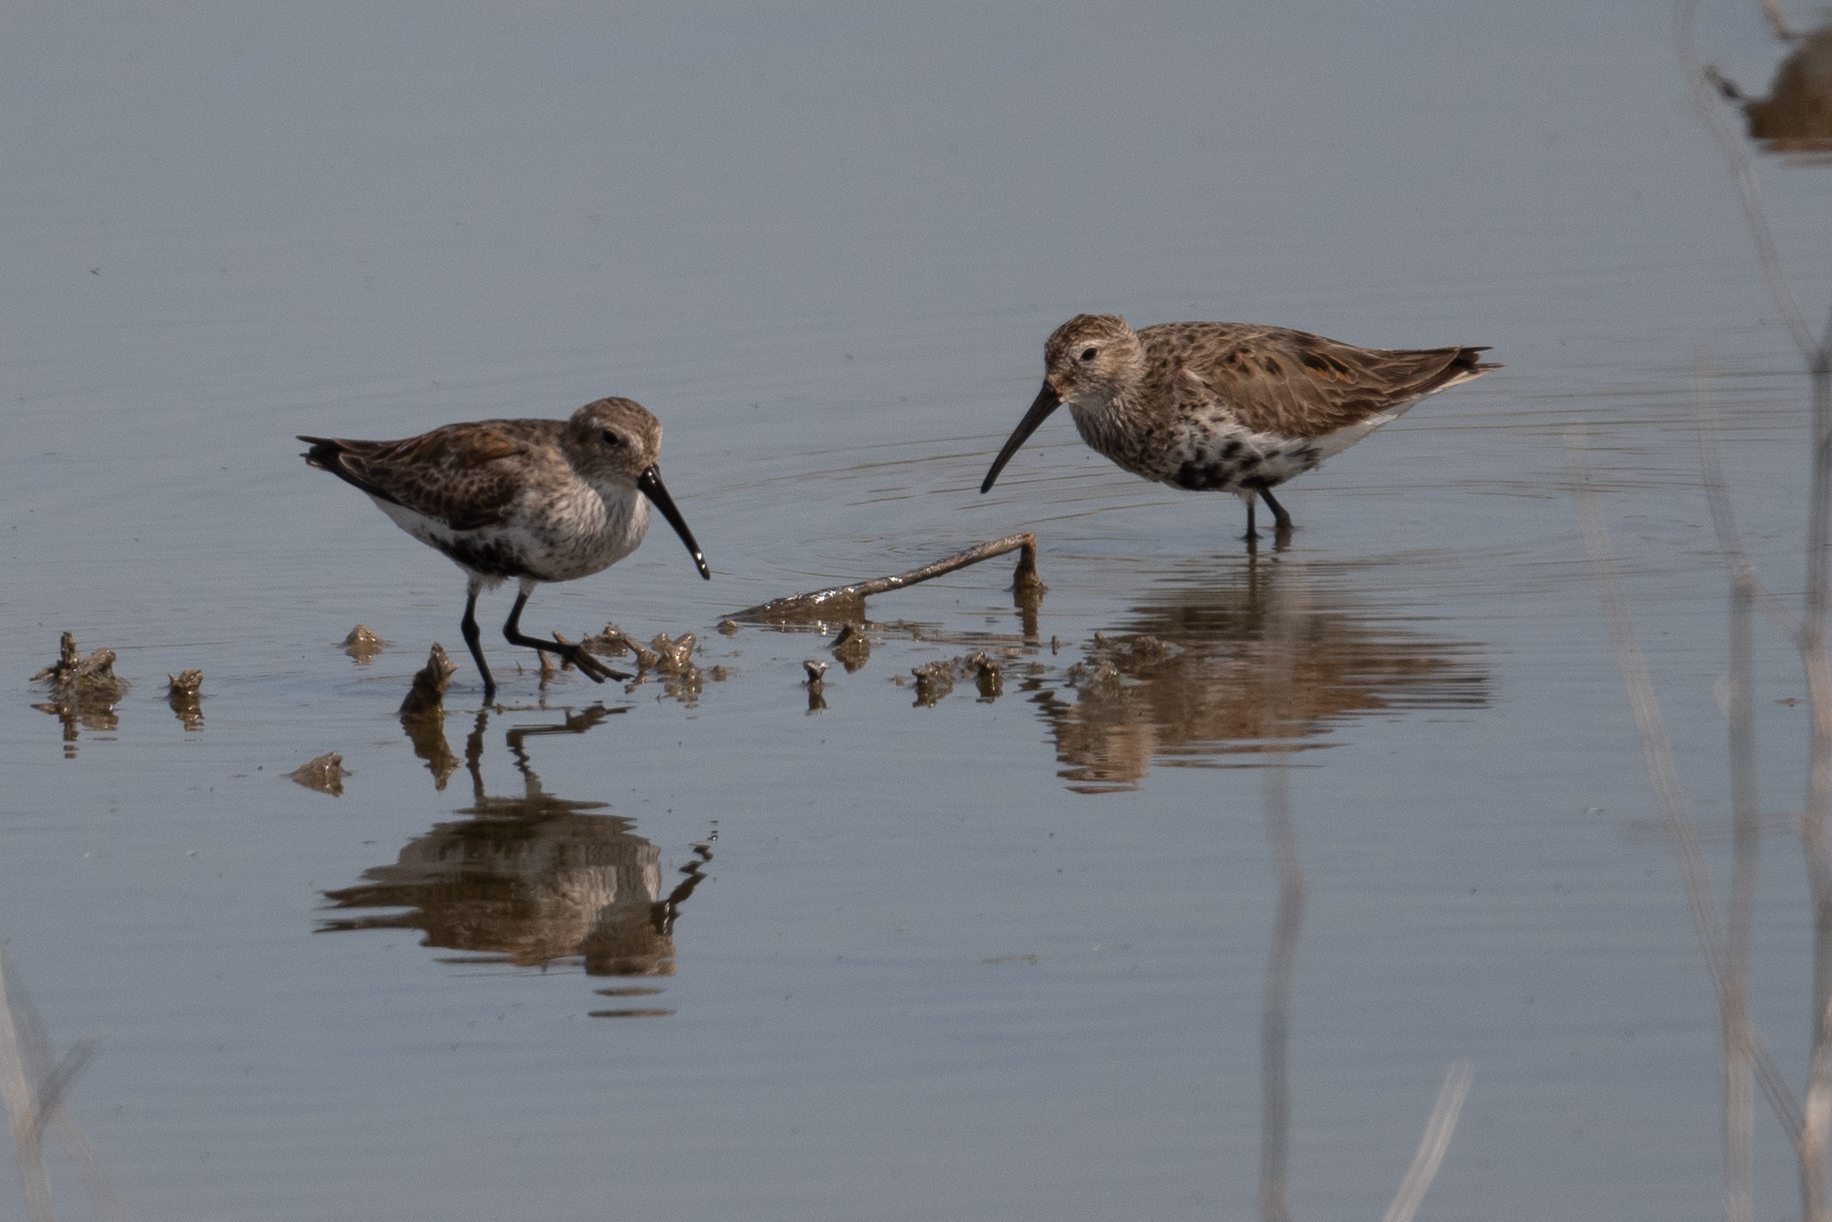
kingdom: Animalia
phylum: Chordata
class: Aves
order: Charadriiformes
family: Scolopacidae
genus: Calidris
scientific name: Calidris alpina
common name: Dunlin
